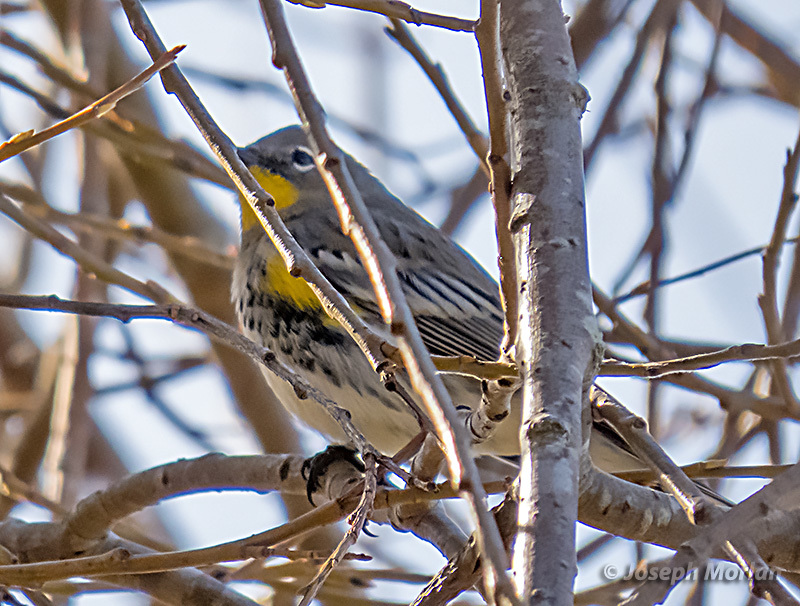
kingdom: Animalia
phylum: Chordata
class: Aves
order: Passeriformes
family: Parulidae
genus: Setophaga
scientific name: Setophaga coronata
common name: Myrtle warbler
